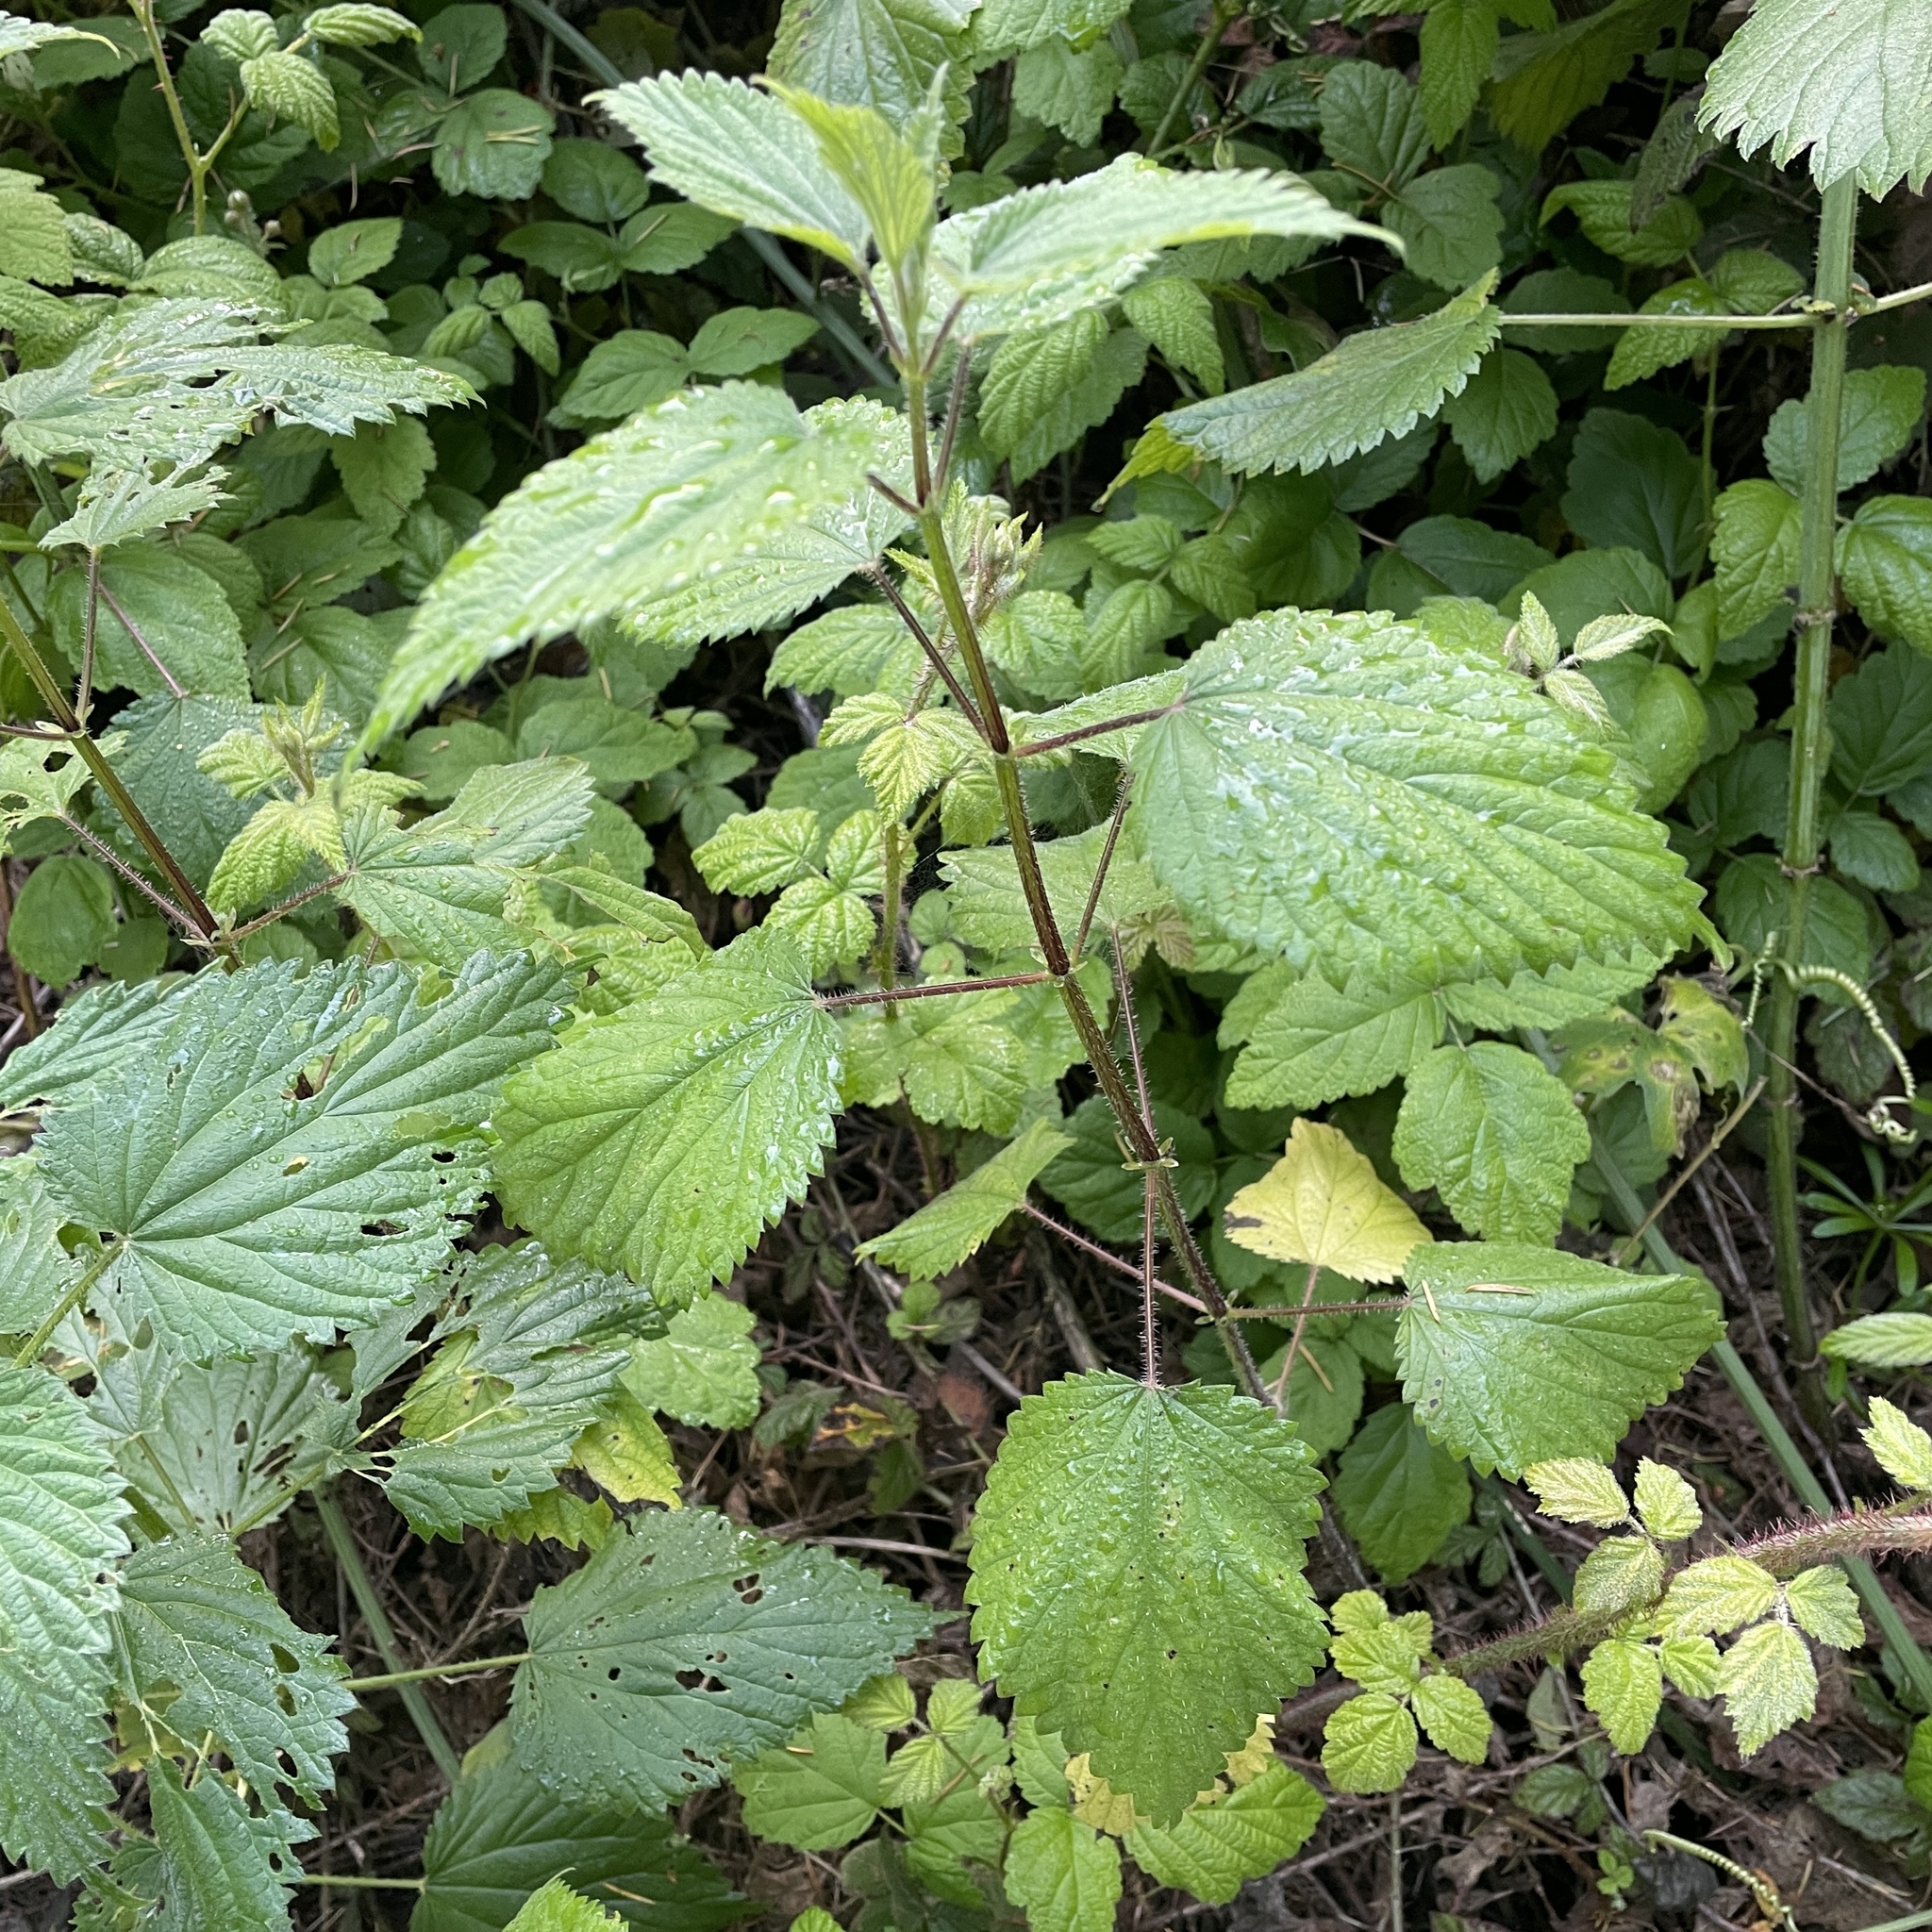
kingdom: Plantae
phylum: Tracheophyta
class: Magnoliopsida
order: Rosales
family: Urticaceae
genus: Urtica
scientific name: Urtica dioica
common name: Common nettle
